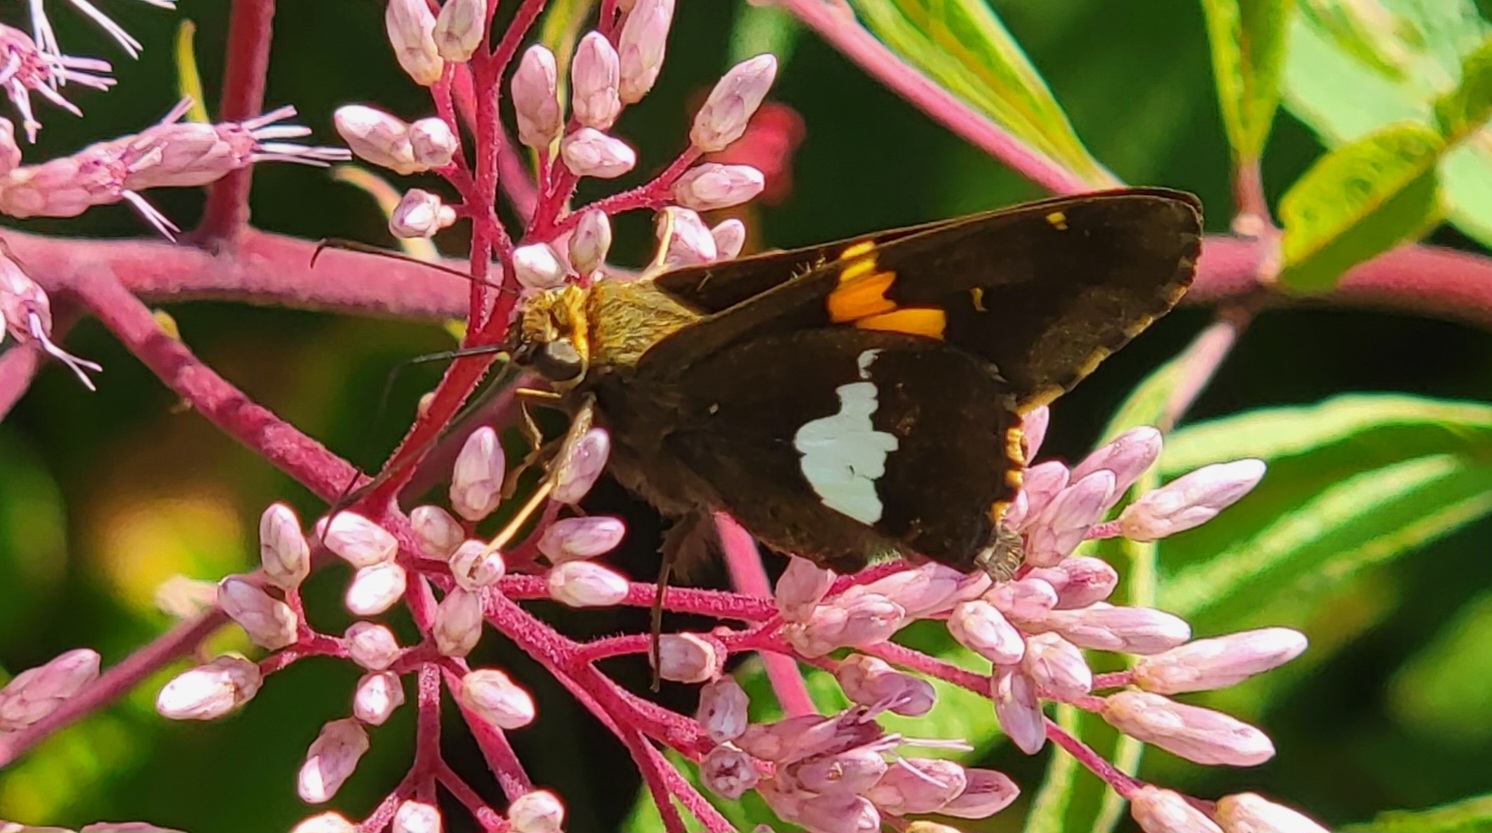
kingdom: Animalia
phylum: Arthropoda
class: Insecta
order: Lepidoptera
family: Hesperiidae
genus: Epargyreus
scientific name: Epargyreus clarus
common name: Silver-spotted skipper
